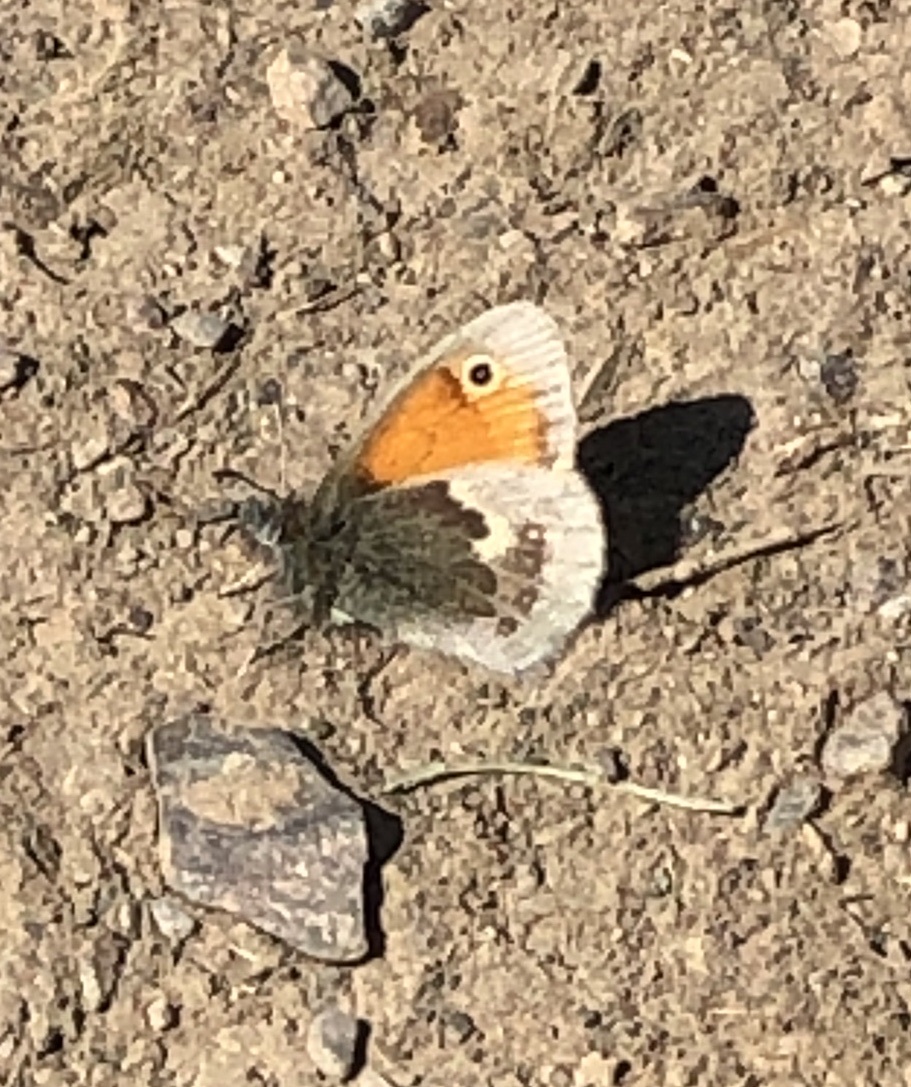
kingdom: Animalia
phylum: Arthropoda
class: Insecta
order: Lepidoptera
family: Nymphalidae
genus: Coenonympha
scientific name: Coenonympha pamphilus
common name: Small heath
